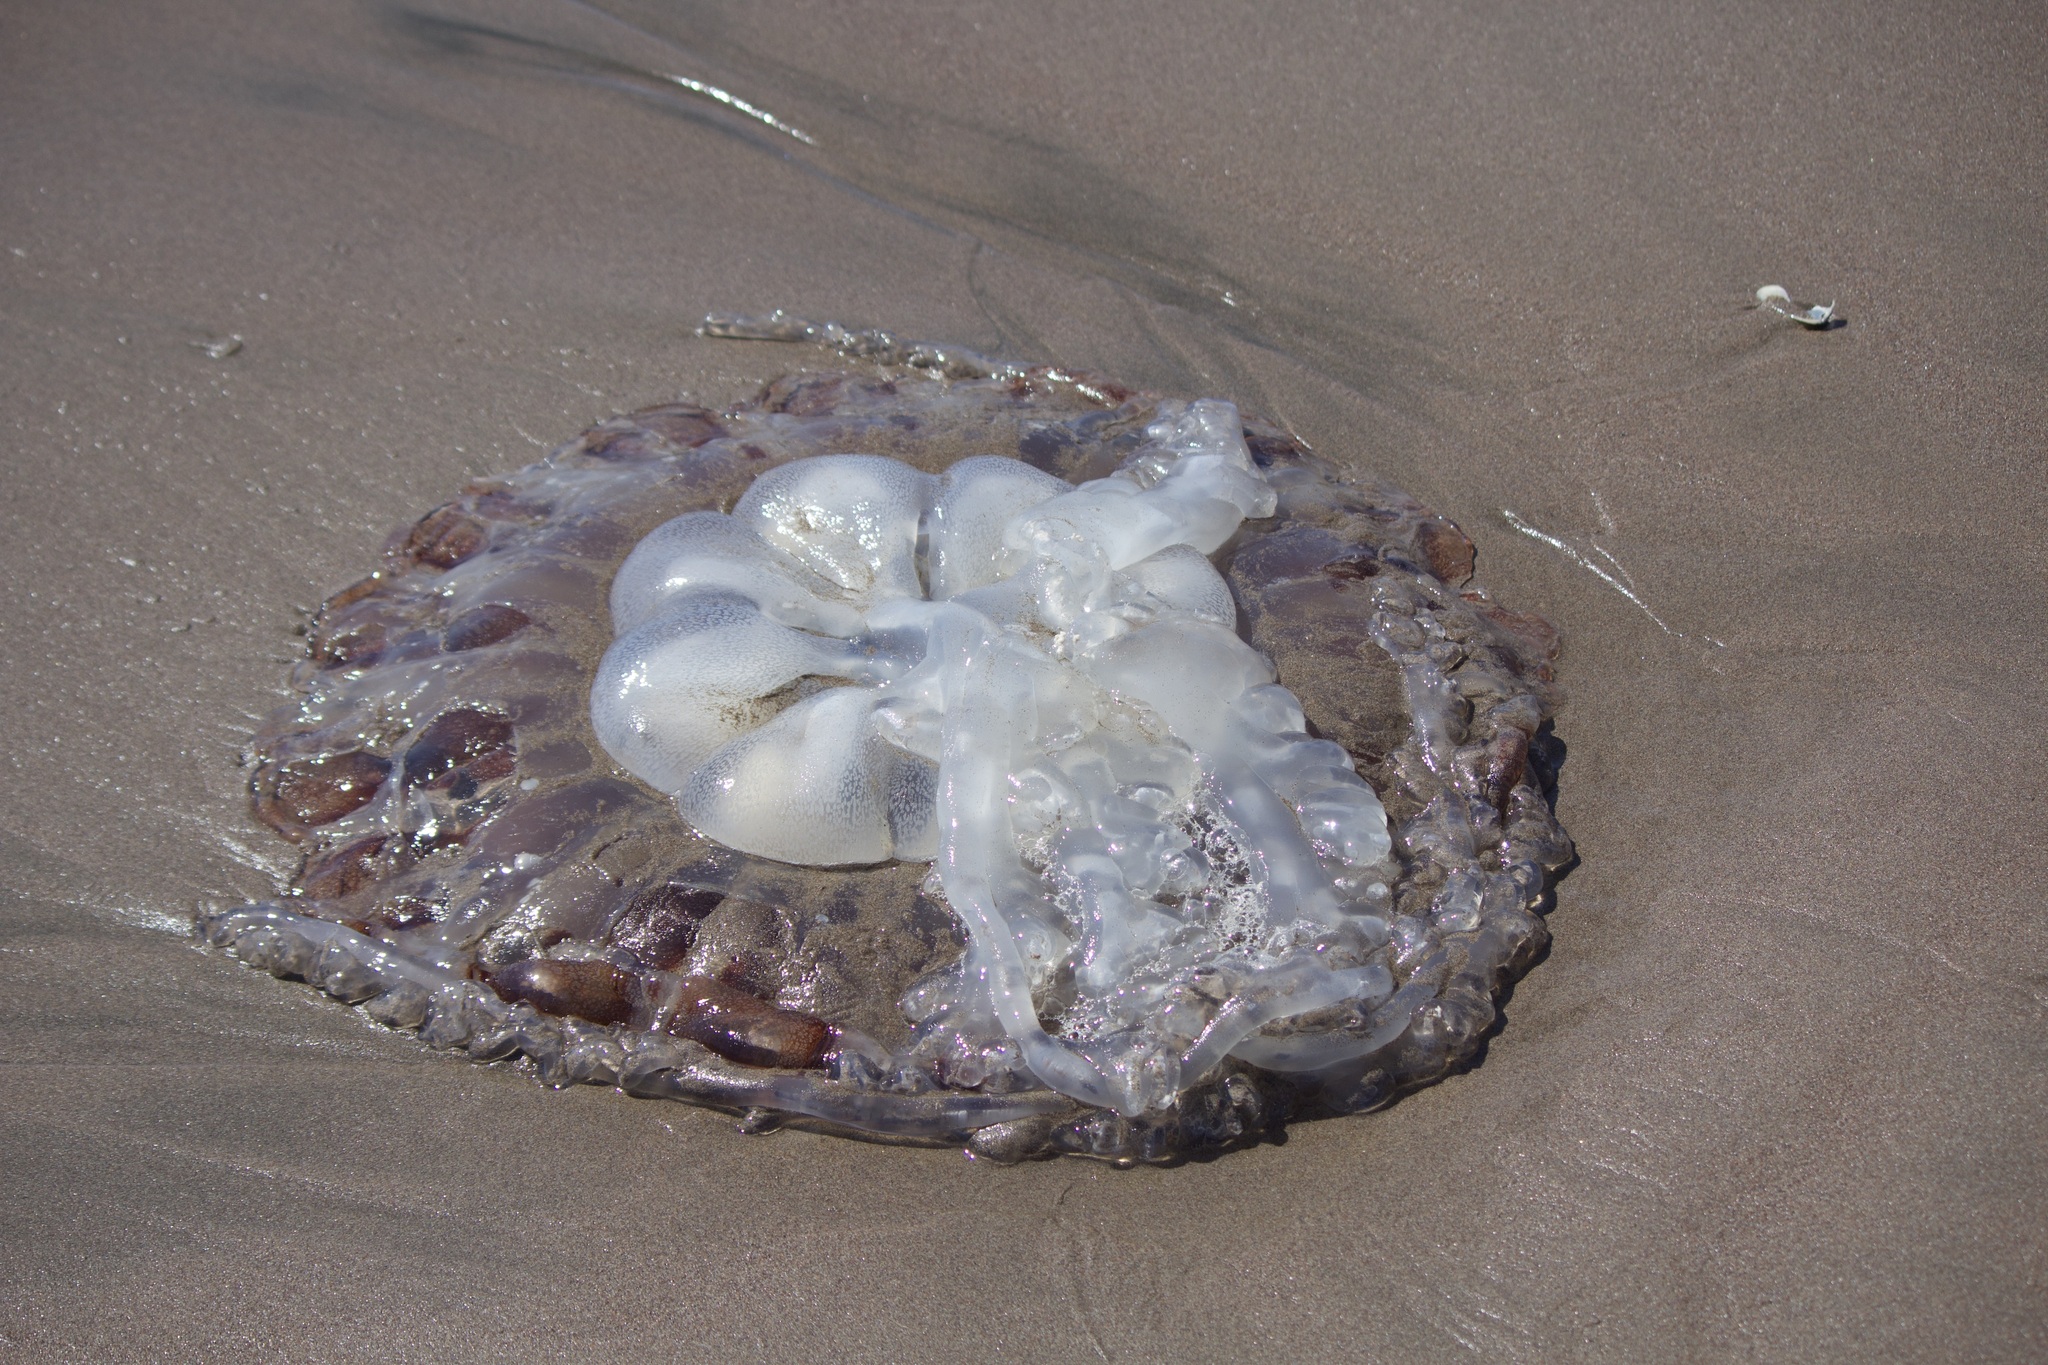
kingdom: Animalia
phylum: Cnidaria
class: Scyphozoa
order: Semaeostomeae
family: Pelagiidae
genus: Chrysaora
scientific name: Chrysaora plocamia
